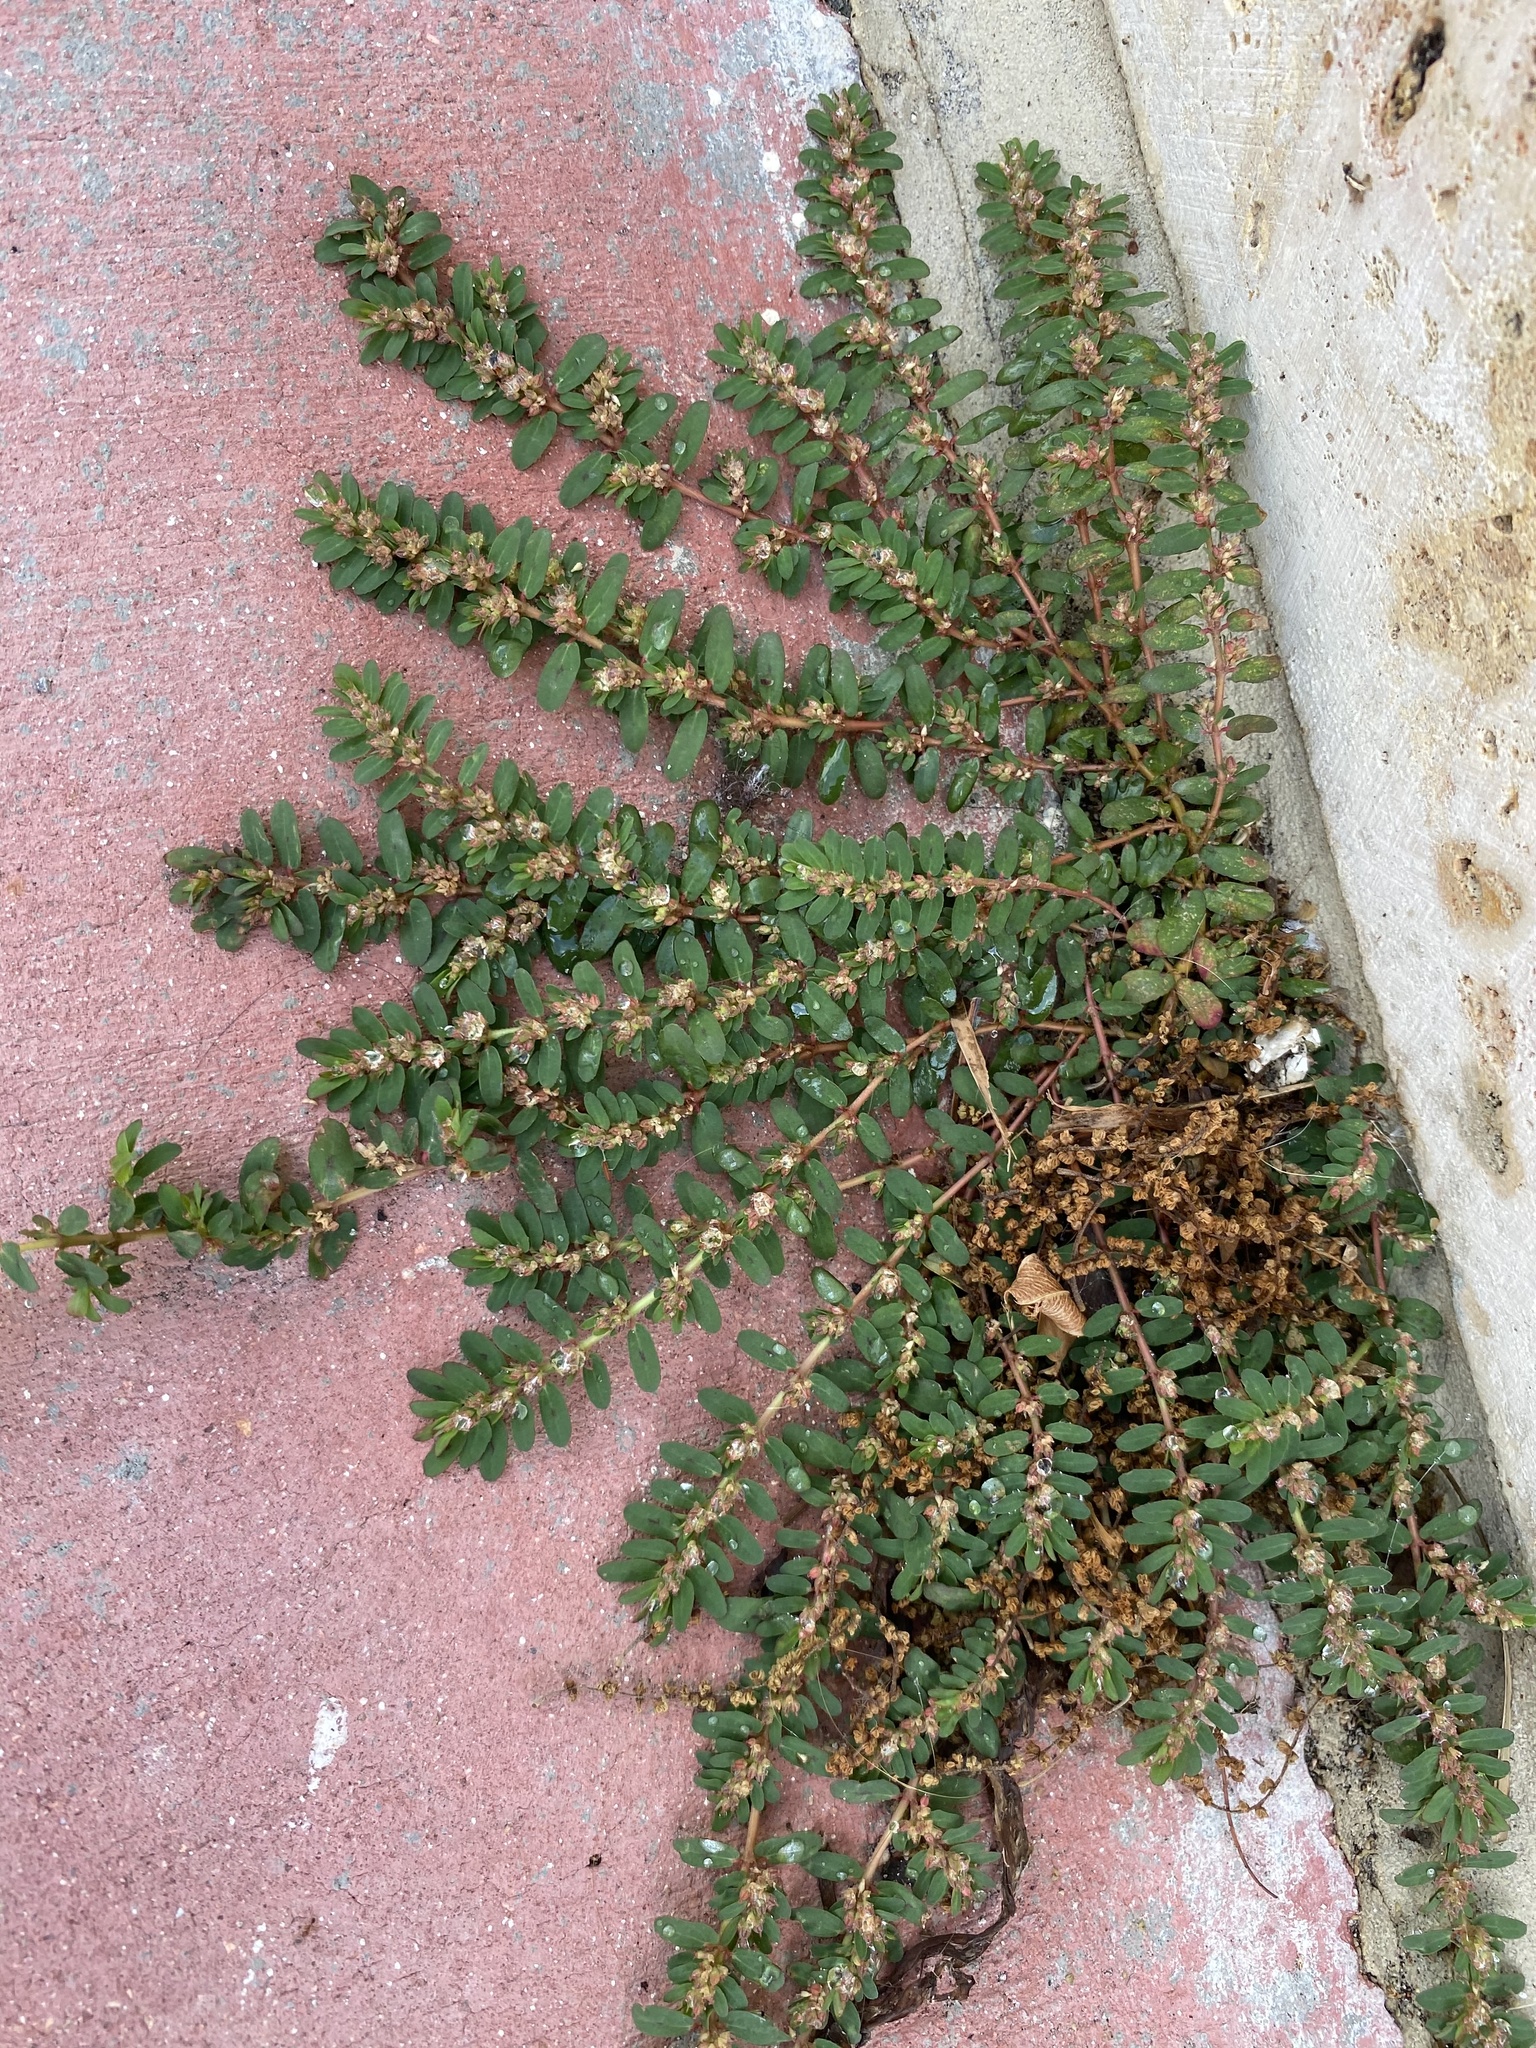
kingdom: Plantae
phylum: Tracheophyta
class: Magnoliopsida
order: Malpighiales
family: Euphorbiaceae
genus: Euphorbia
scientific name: Euphorbia thymifolia
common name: Gulf sandmat
